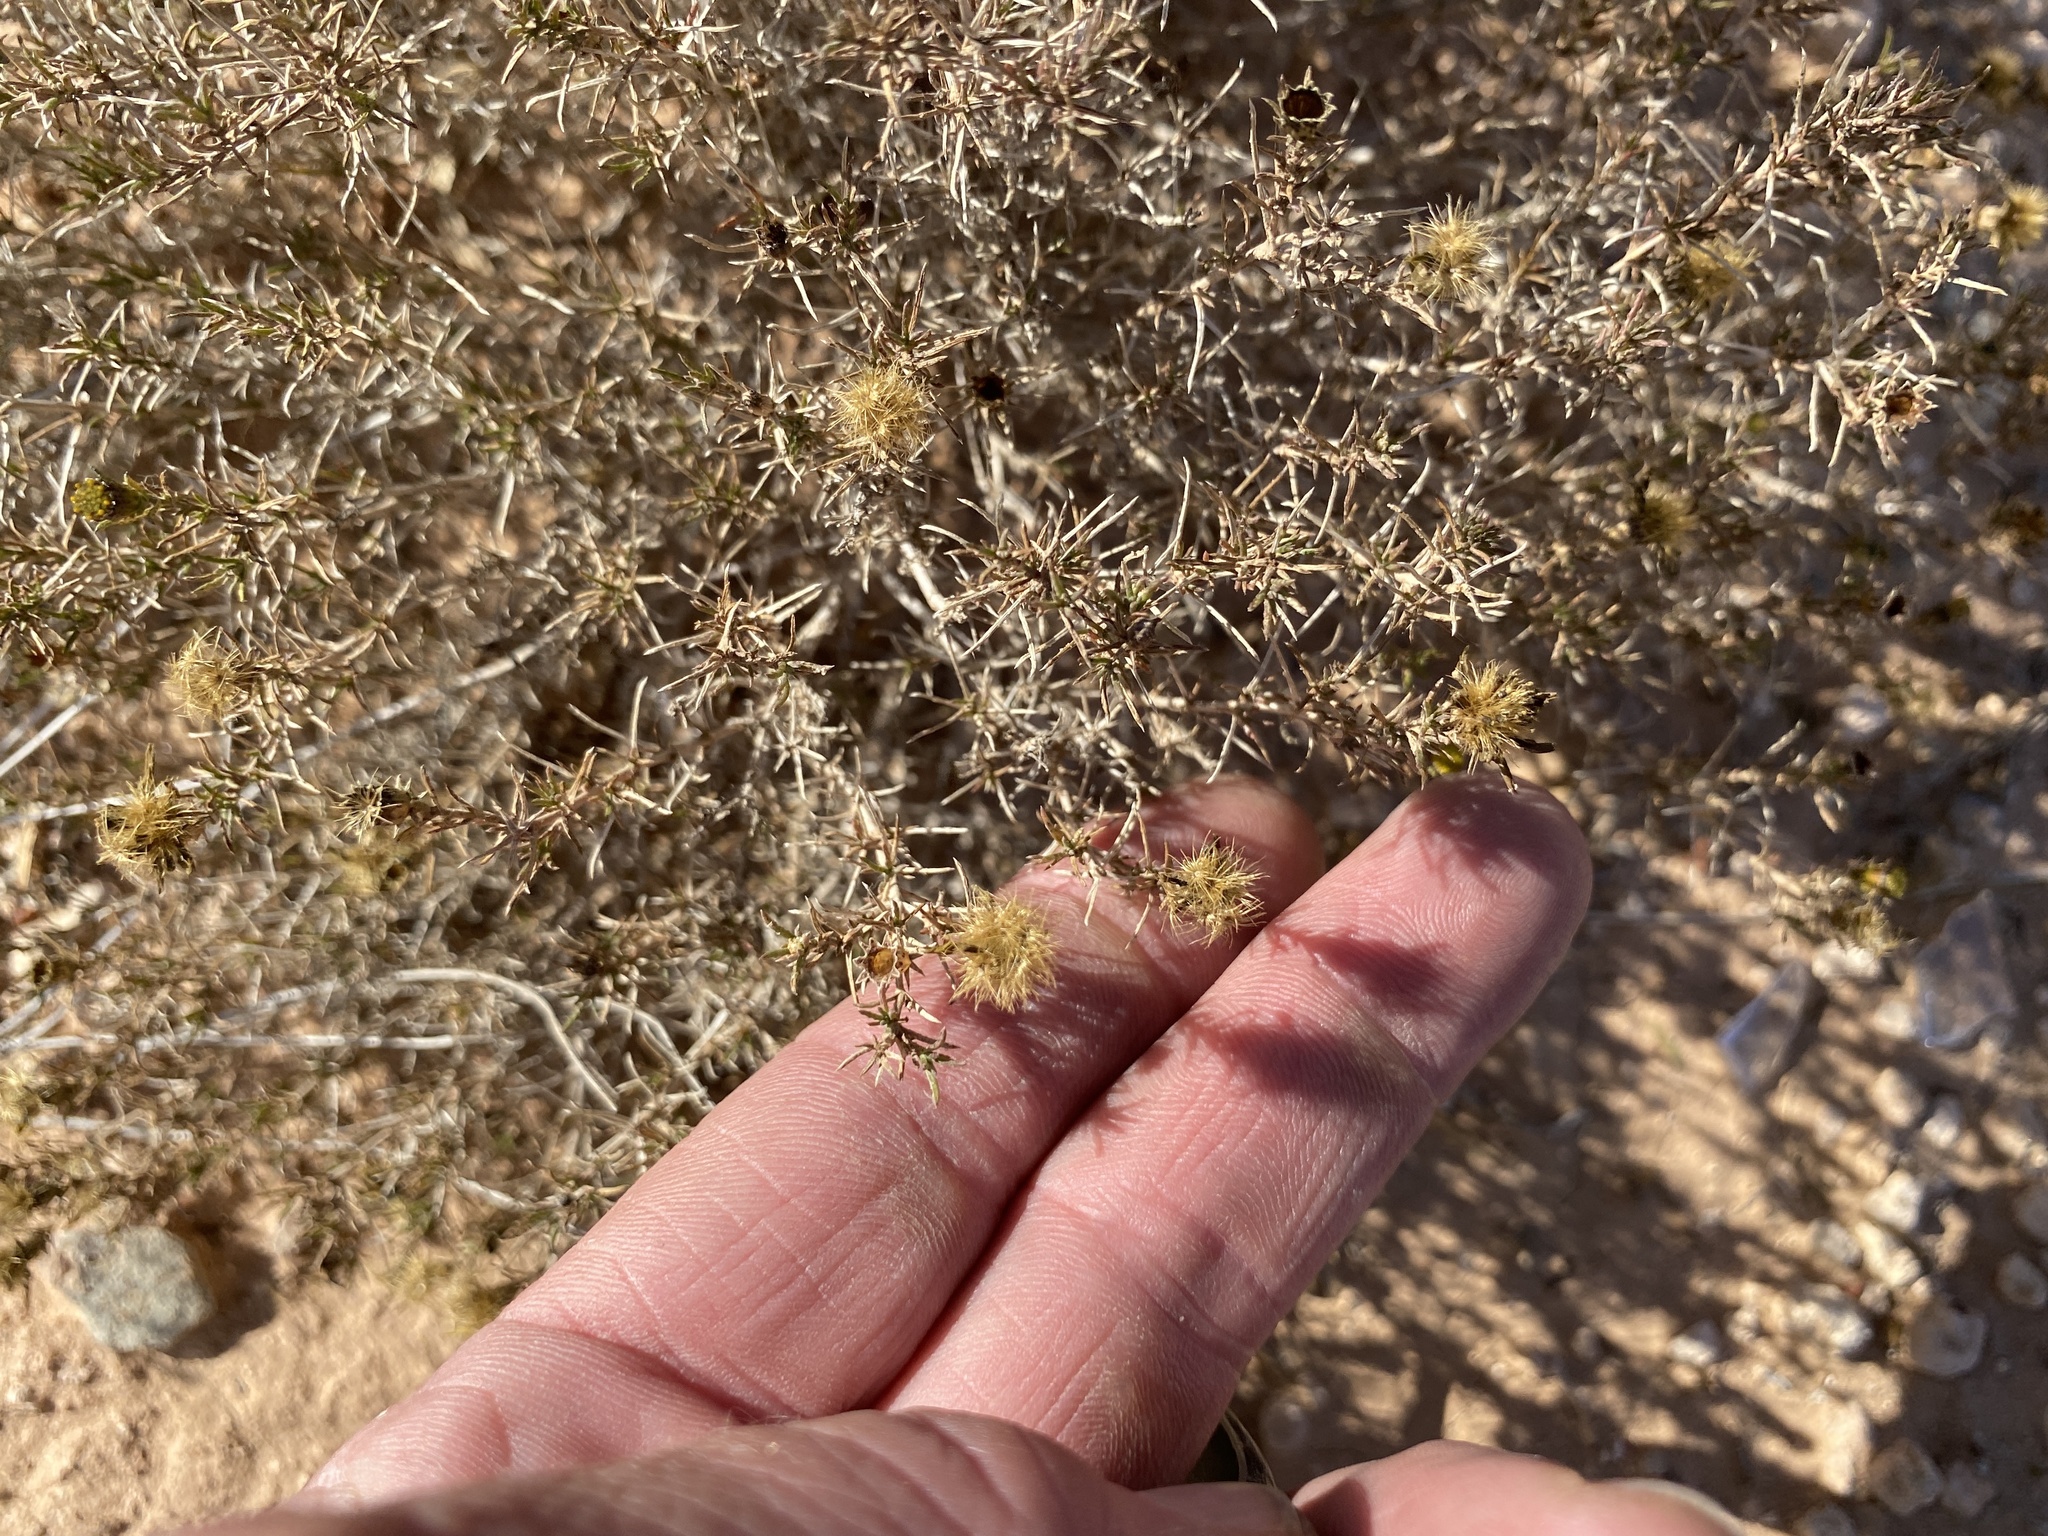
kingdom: Plantae
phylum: Tracheophyta
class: Magnoliopsida
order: Asterales
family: Asteraceae
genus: Thymophylla
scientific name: Thymophylla acerosa
